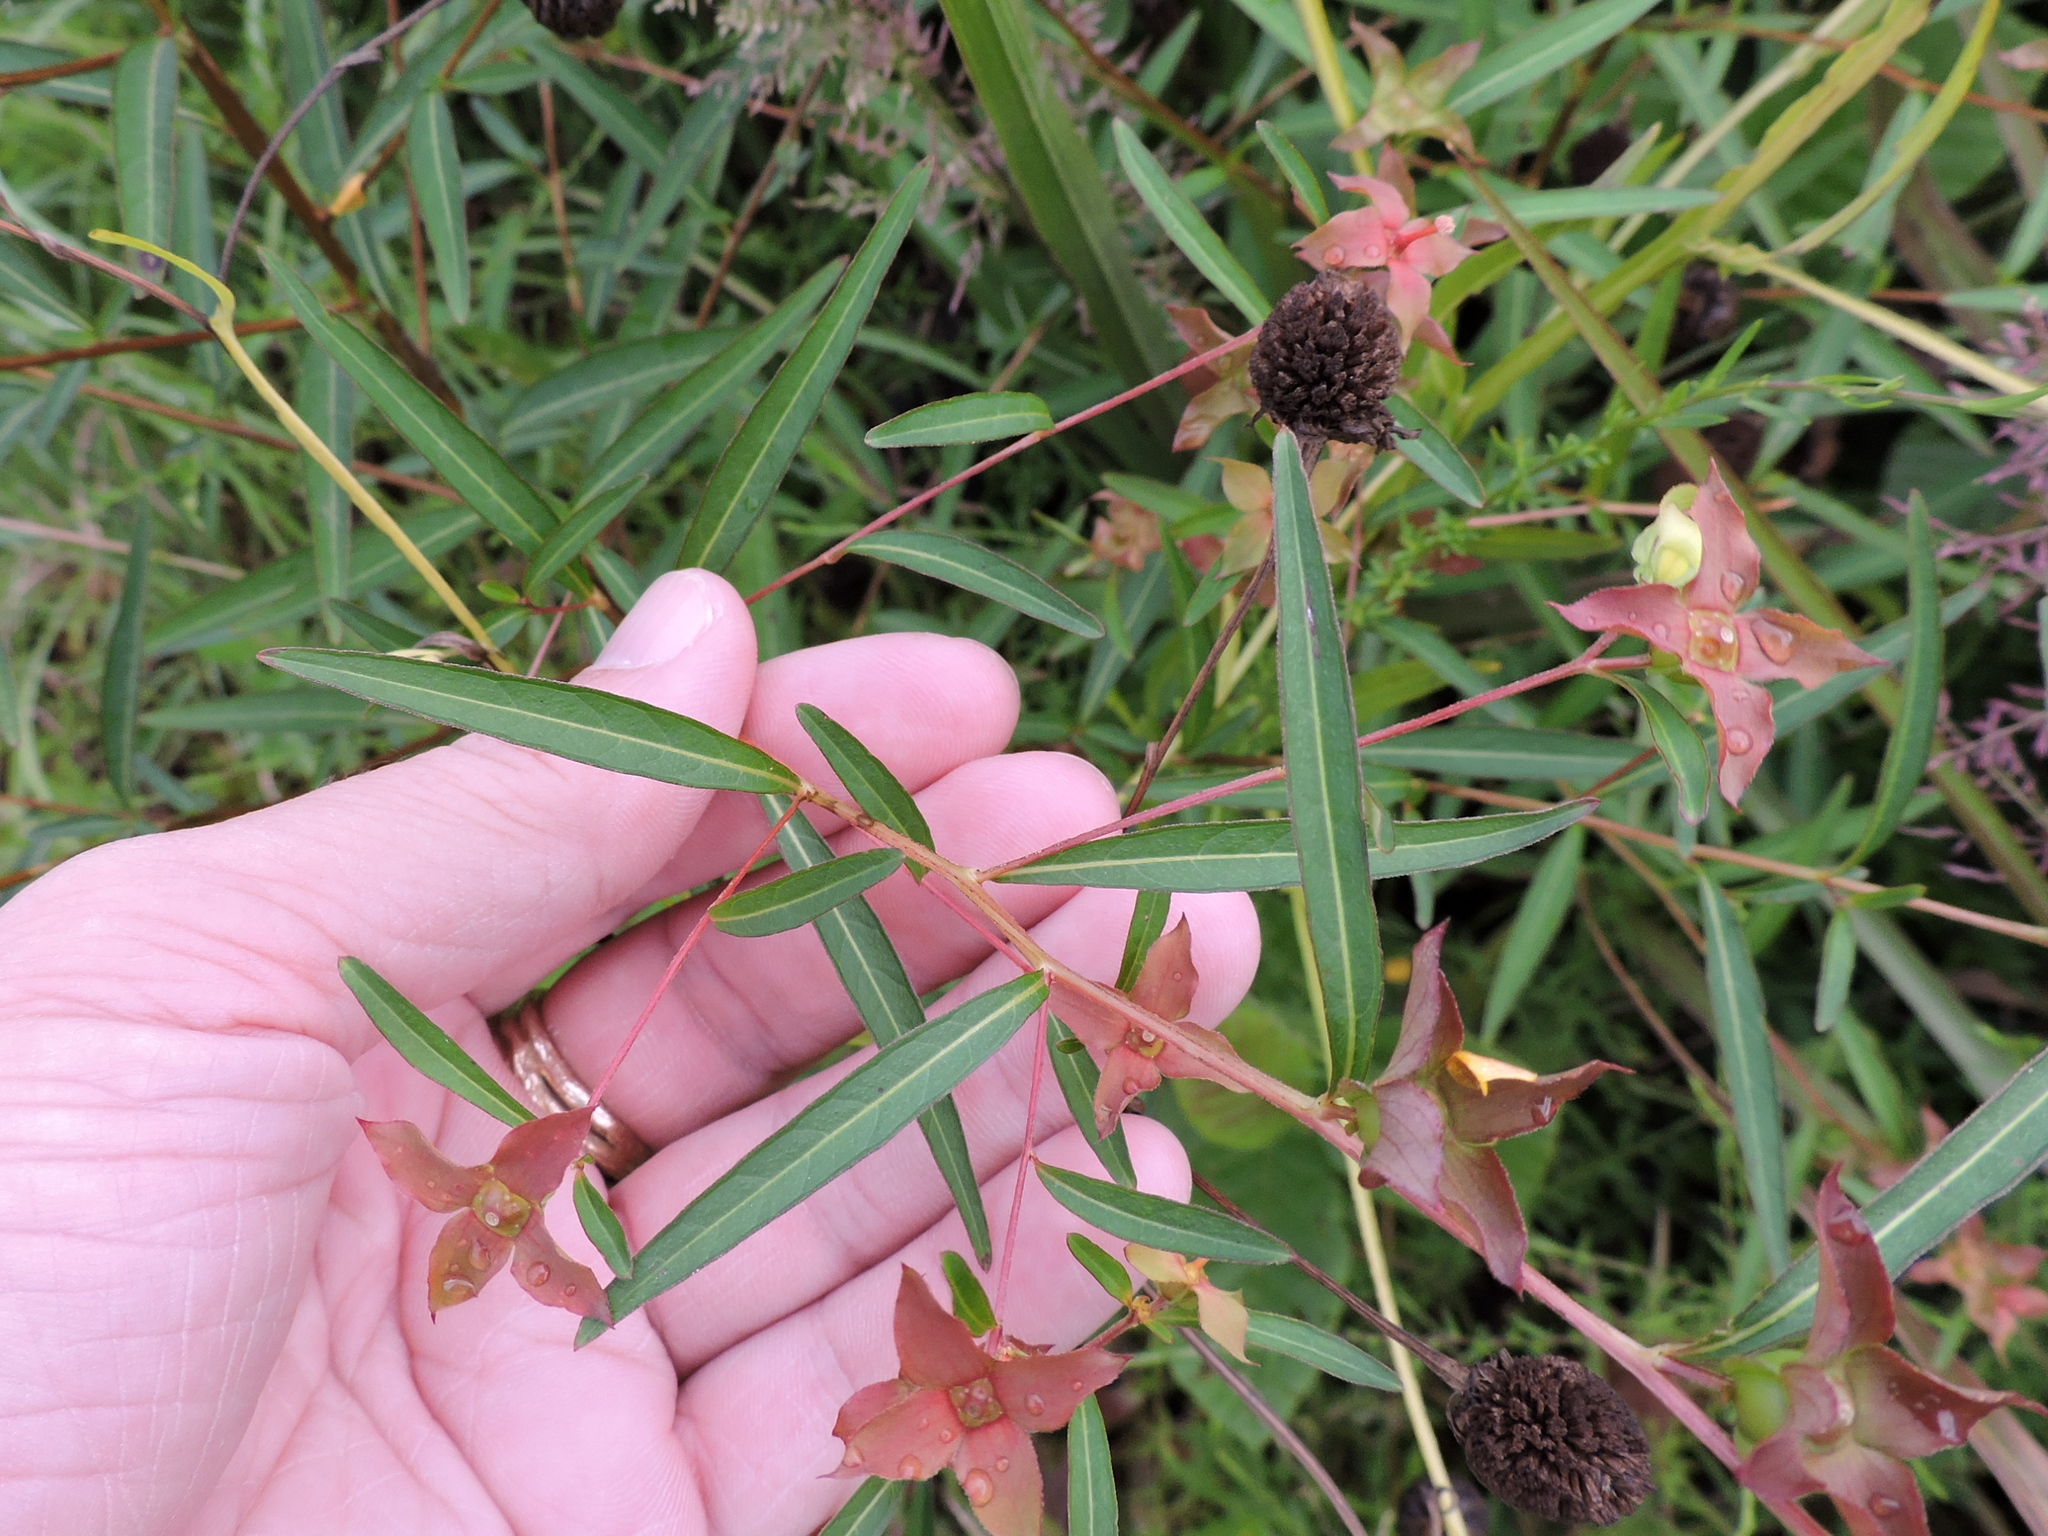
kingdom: Plantae
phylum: Tracheophyta
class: Magnoliopsida
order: Myrtales
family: Onagraceae
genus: Ludwigia
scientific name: Ludwigia alternifolia
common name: Rattlebox
